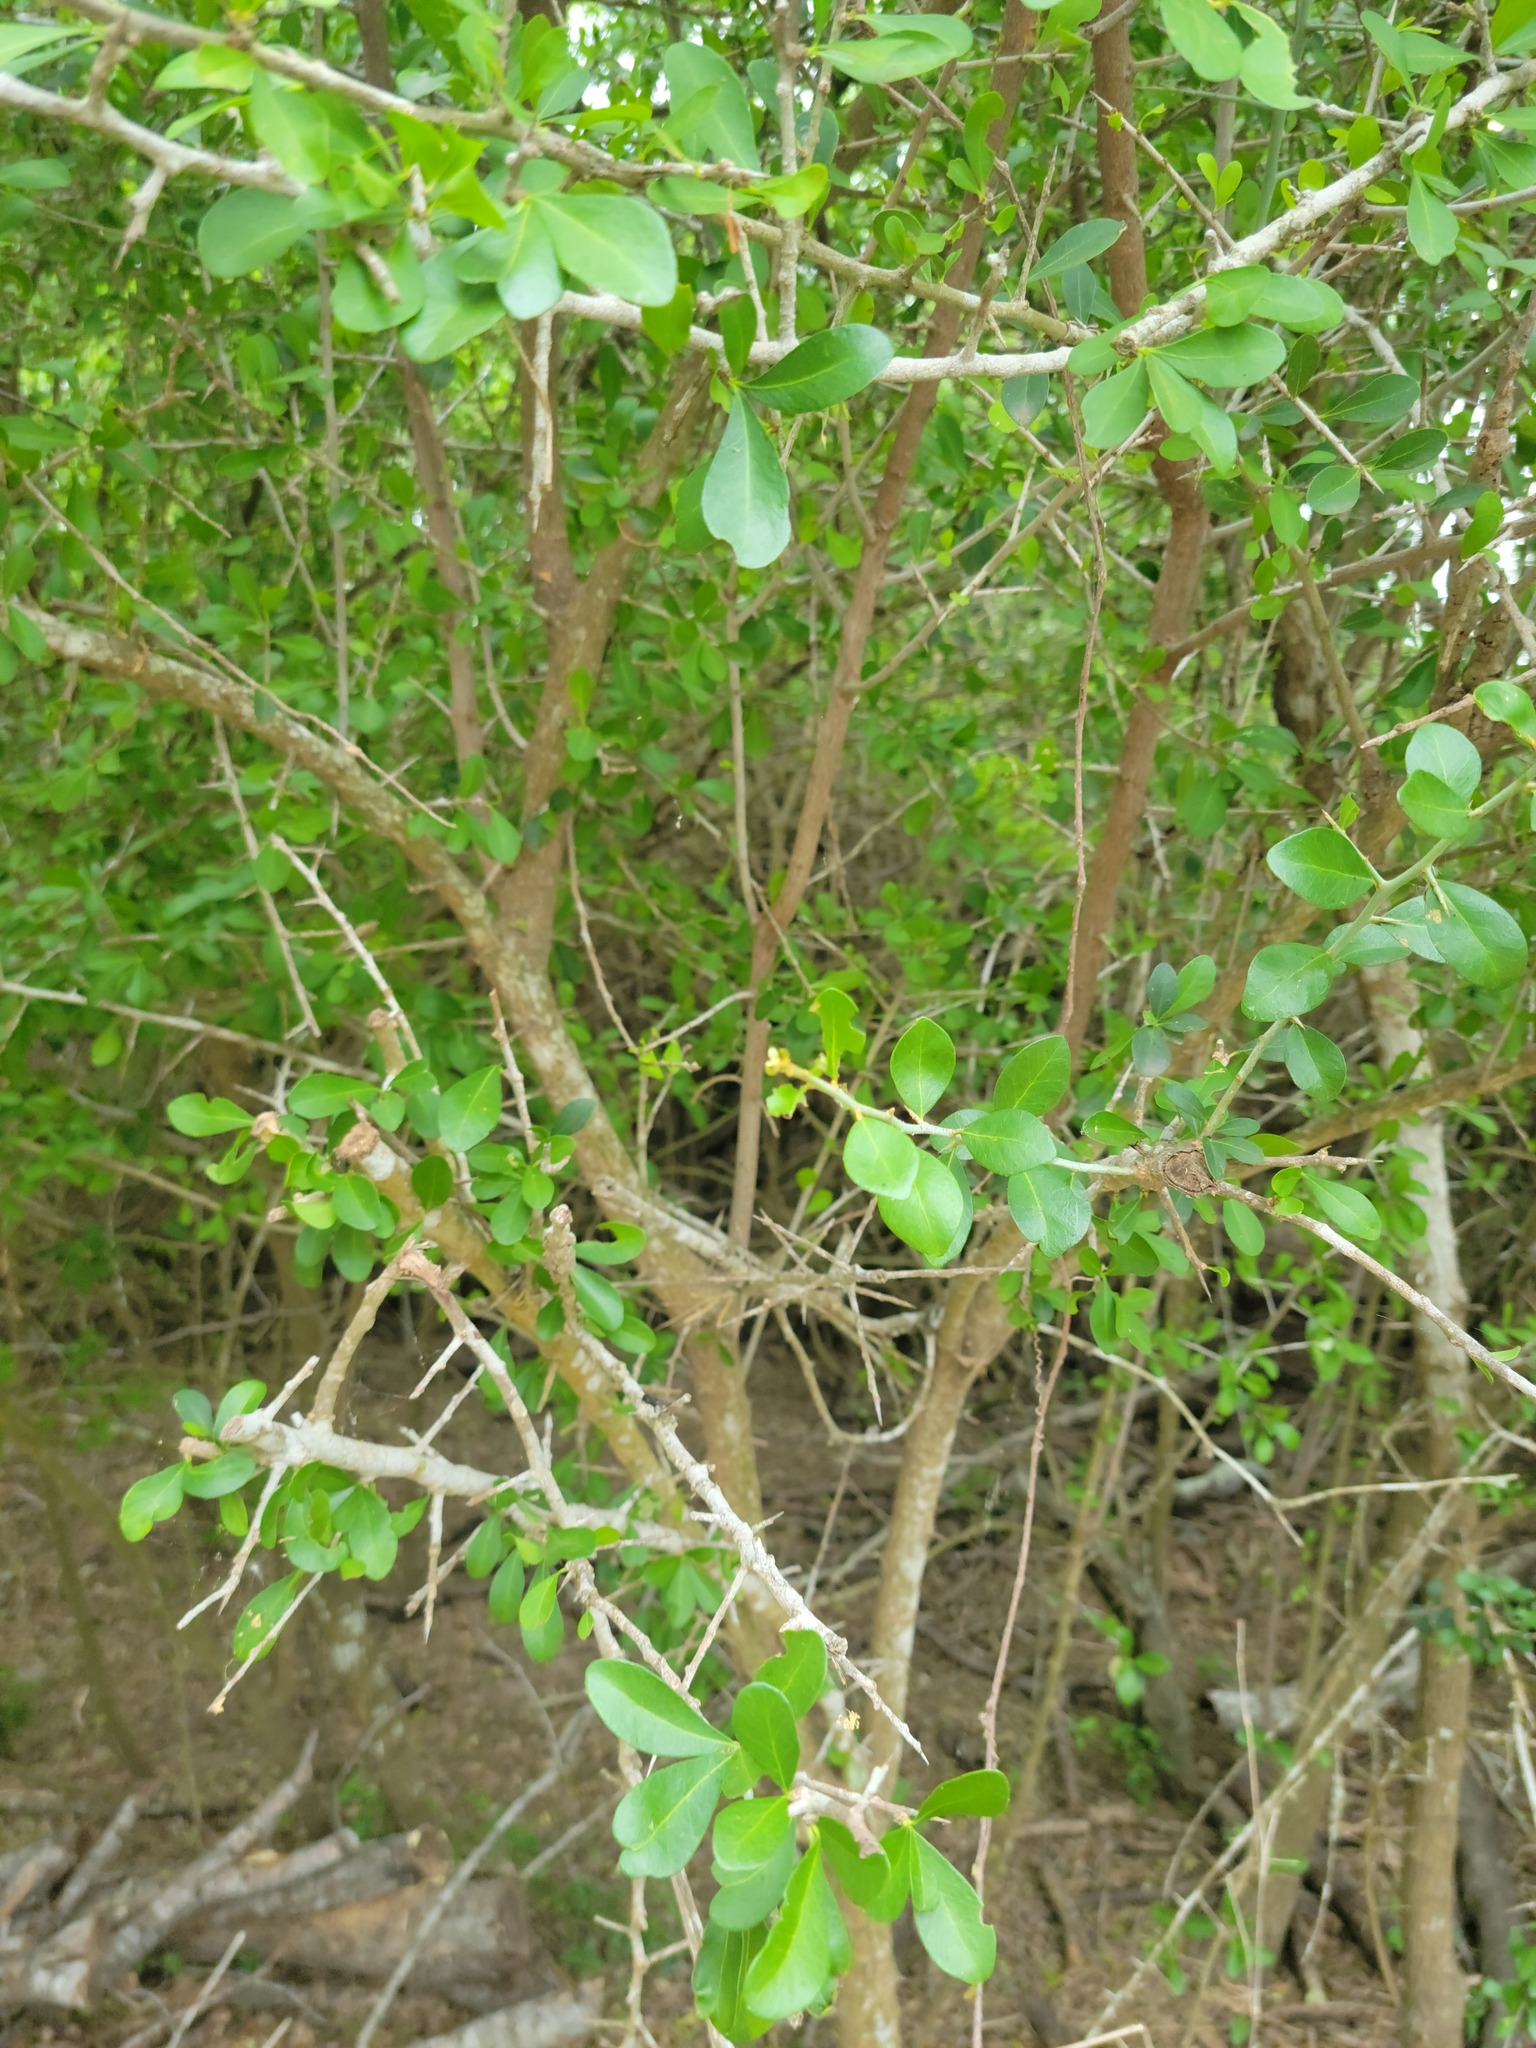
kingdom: Plantae
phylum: Tracheophyta
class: Magnoliopsida
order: Ericales
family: Sapotaceae
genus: Sideroxylon
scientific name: Sideroxylon celastrinum
